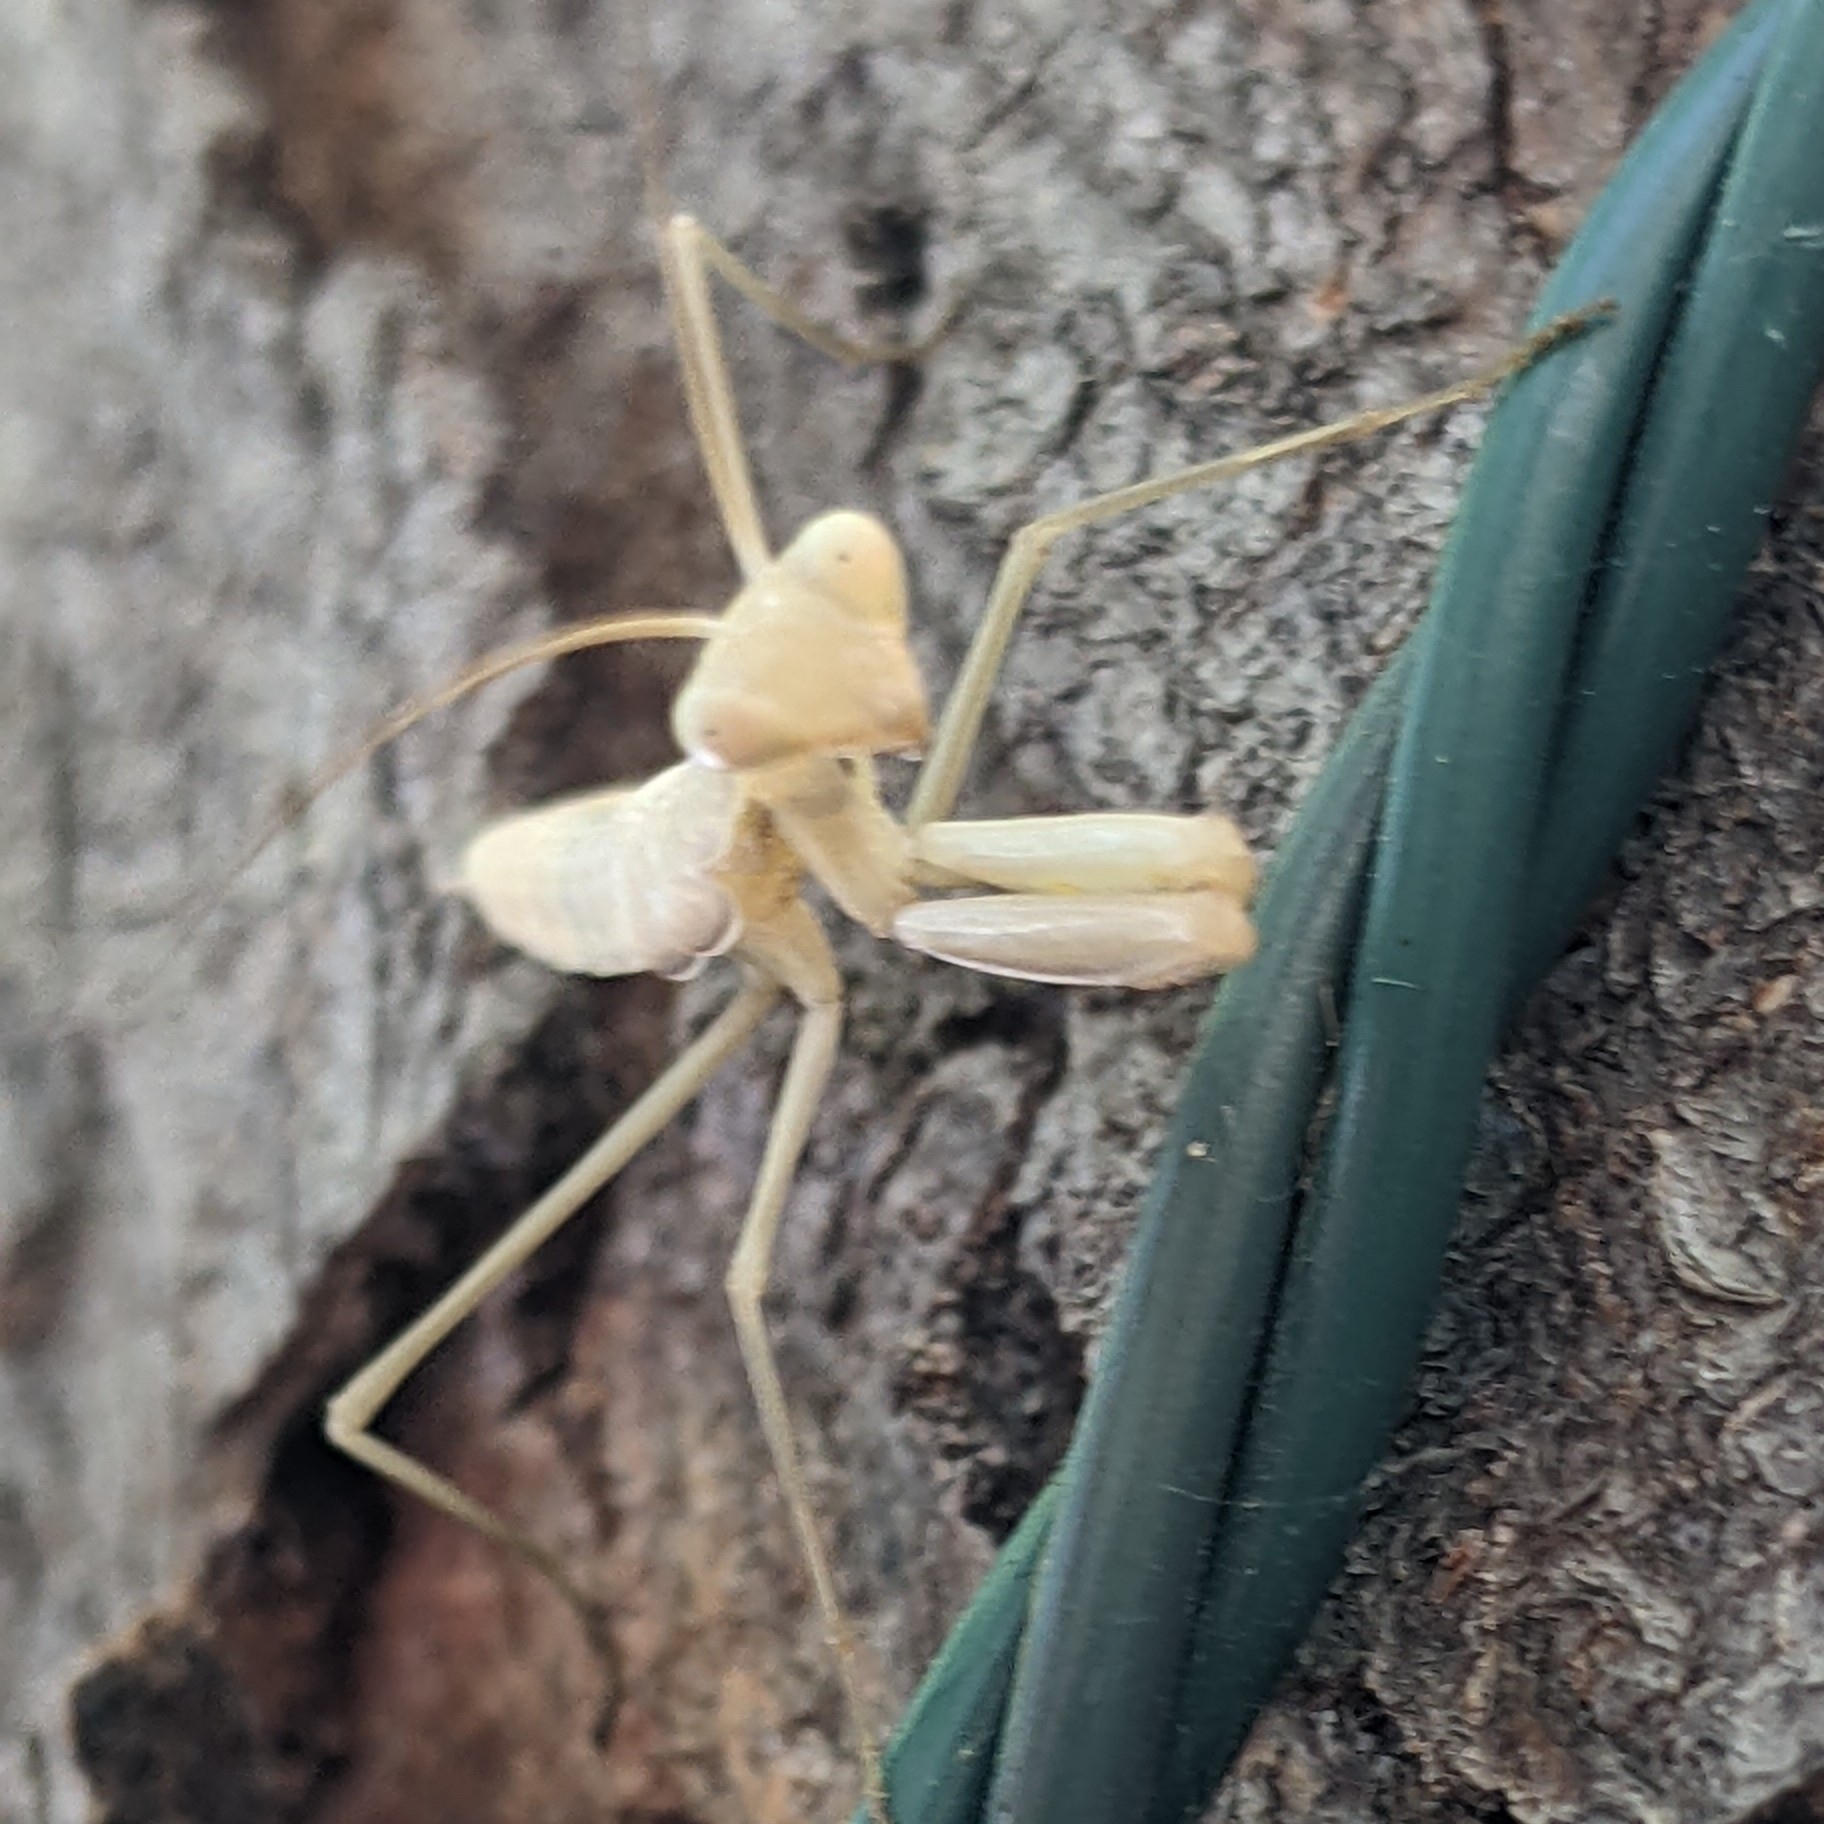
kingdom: Animalia
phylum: Arthropoda
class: Insecta
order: Mantodea
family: Mantidae
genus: Mantis
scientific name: Mantis religiosa
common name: Praying mantis
